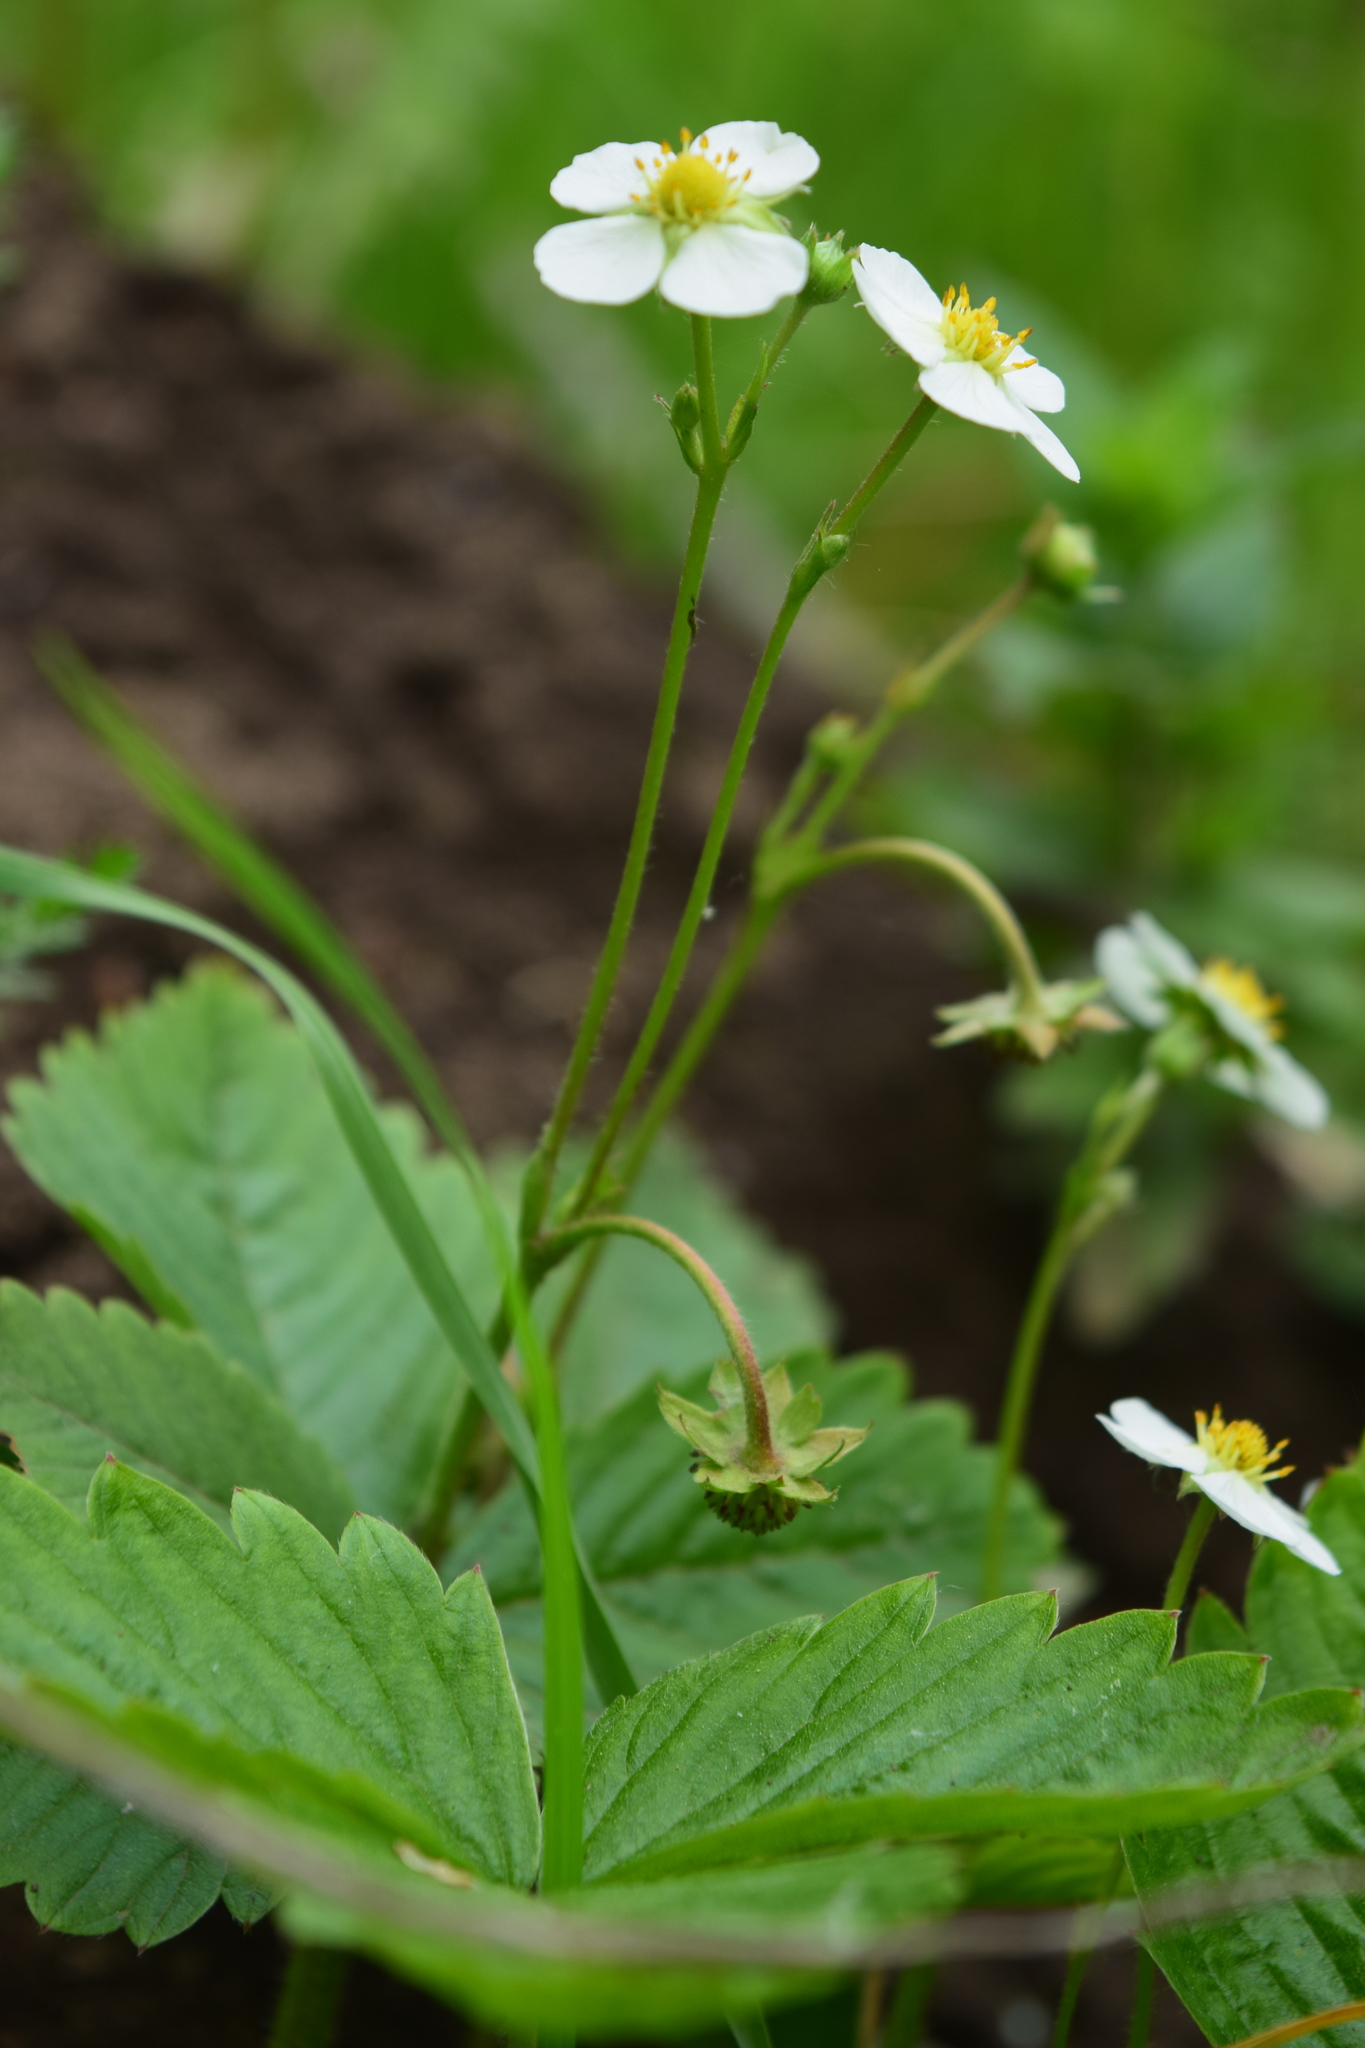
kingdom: Plantae
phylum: Tracheophyta
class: Magnoliopsida
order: Rosales
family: Rosaceae
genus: Fragaria
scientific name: Fragaria vesca
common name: Wild strawberry
